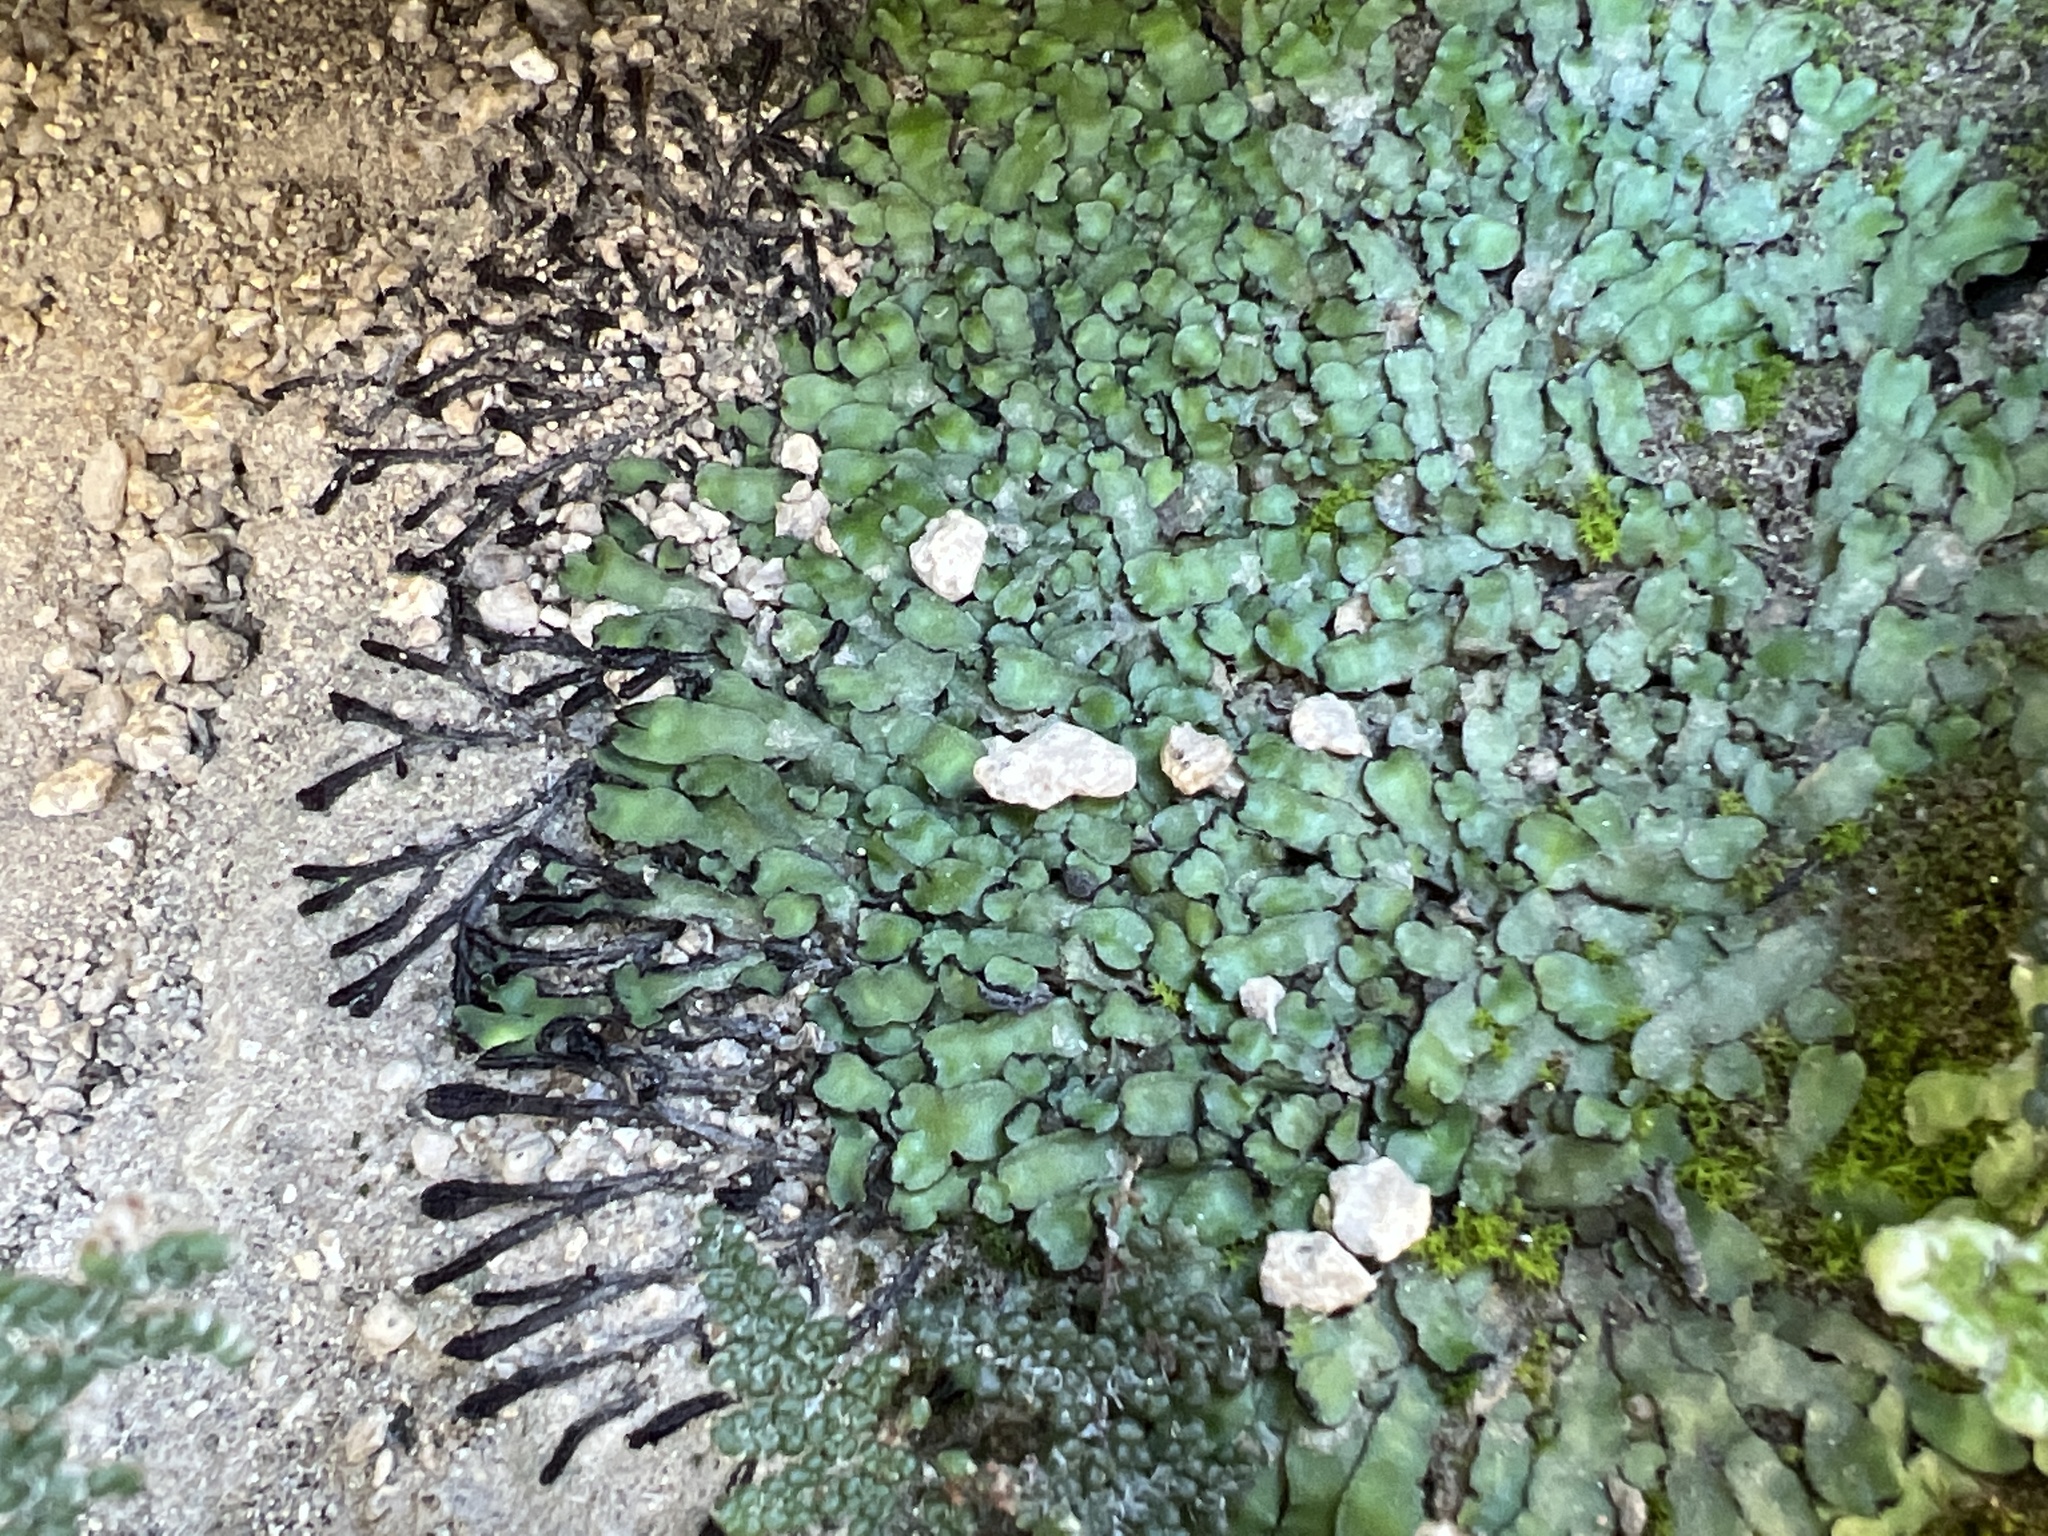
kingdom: Plantae
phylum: Marchantiophyta
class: Marchantiopsida
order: Marchantiales
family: Targioniaceae
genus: Targionia
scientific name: Targionia hypophylla
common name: Orobus-seed liverwort
